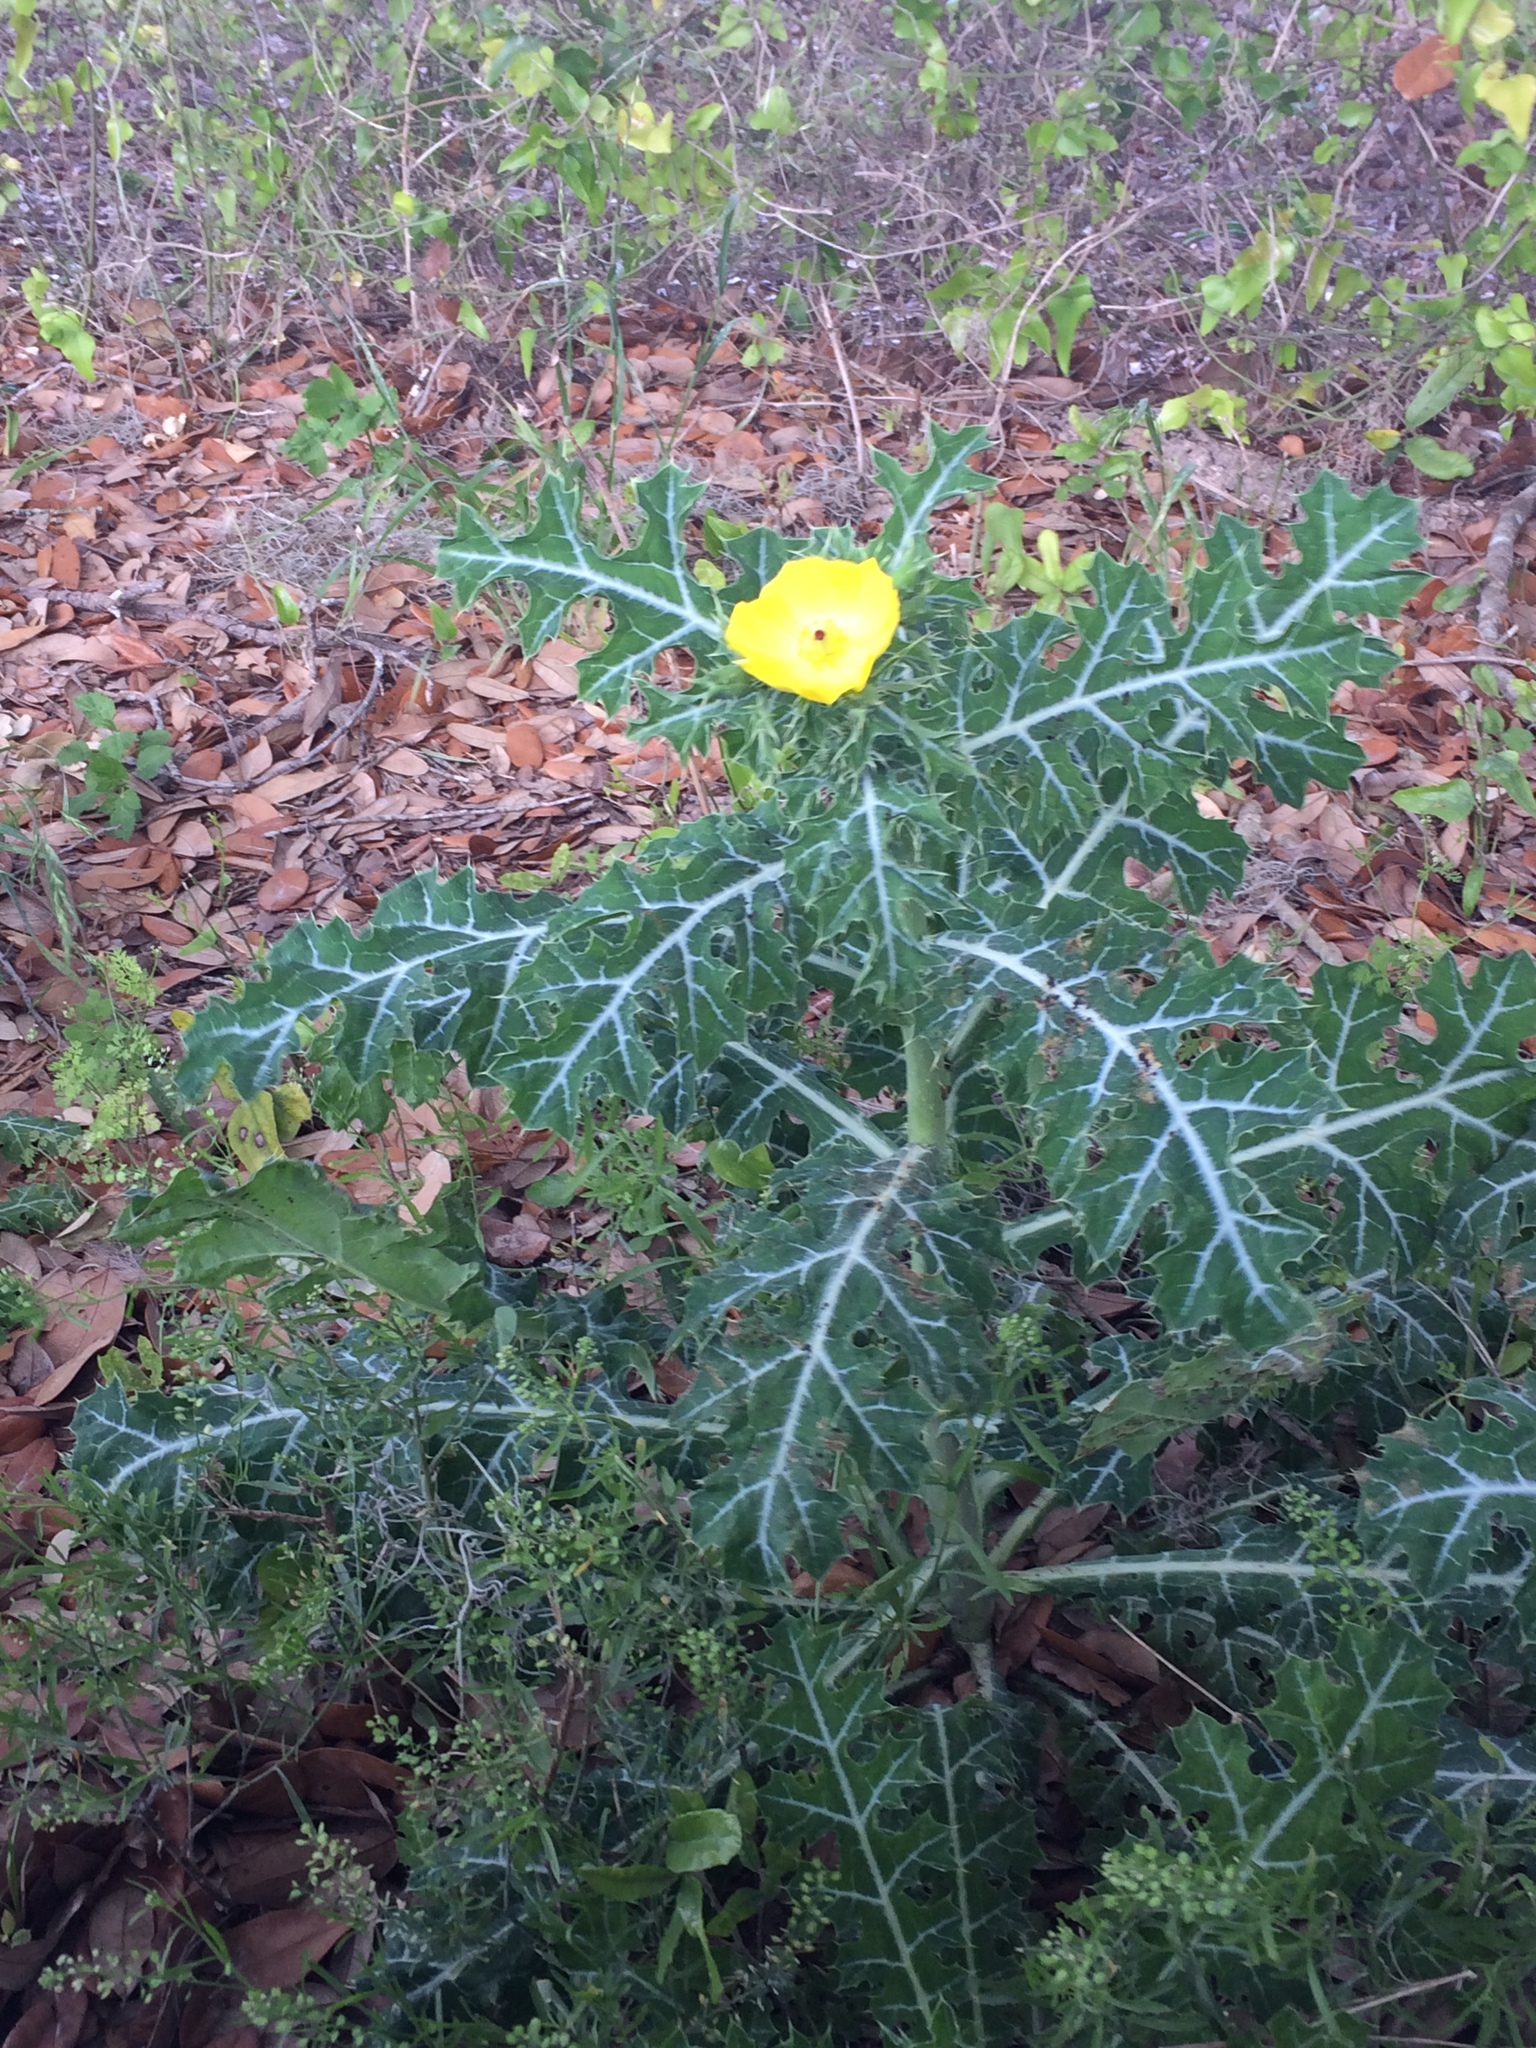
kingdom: Plantae
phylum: Tracheophyta
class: Magnoliopsida
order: Ranunculales
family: Papaveraceae
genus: Argemone
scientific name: Argemone mexicana
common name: Mexican poppy
